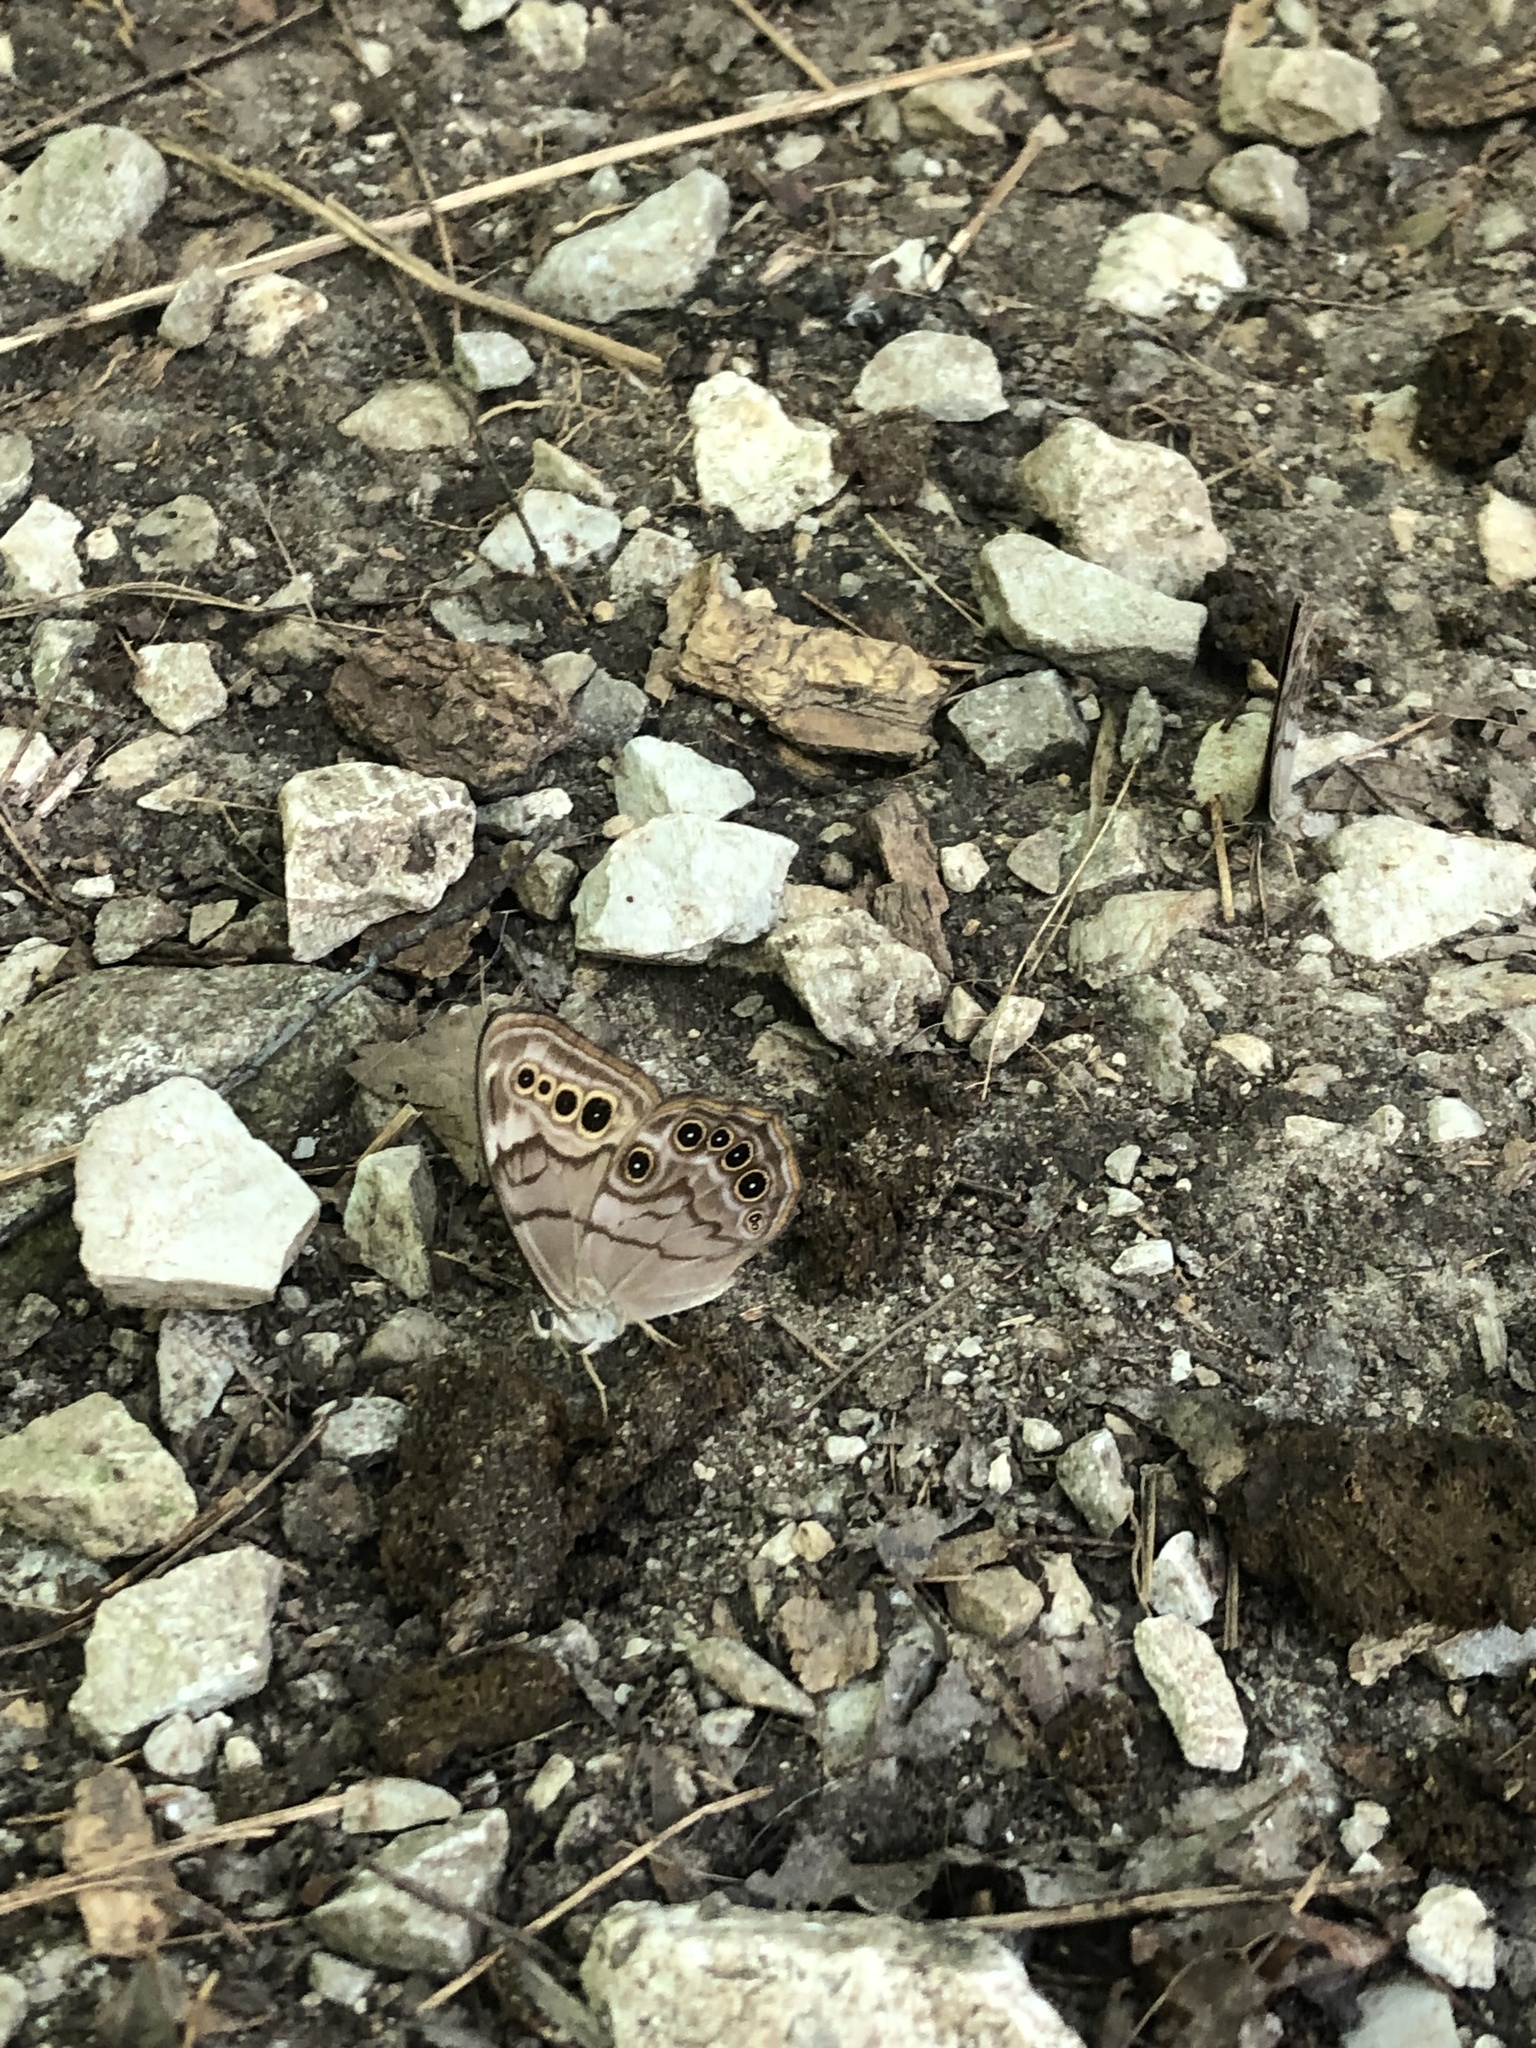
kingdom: Animalia
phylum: Arthropoda
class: Insecta
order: Lepidoptera
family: Nymphalidae
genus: Lethe
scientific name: Lethe anthedon
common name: Northern pearly-eye
